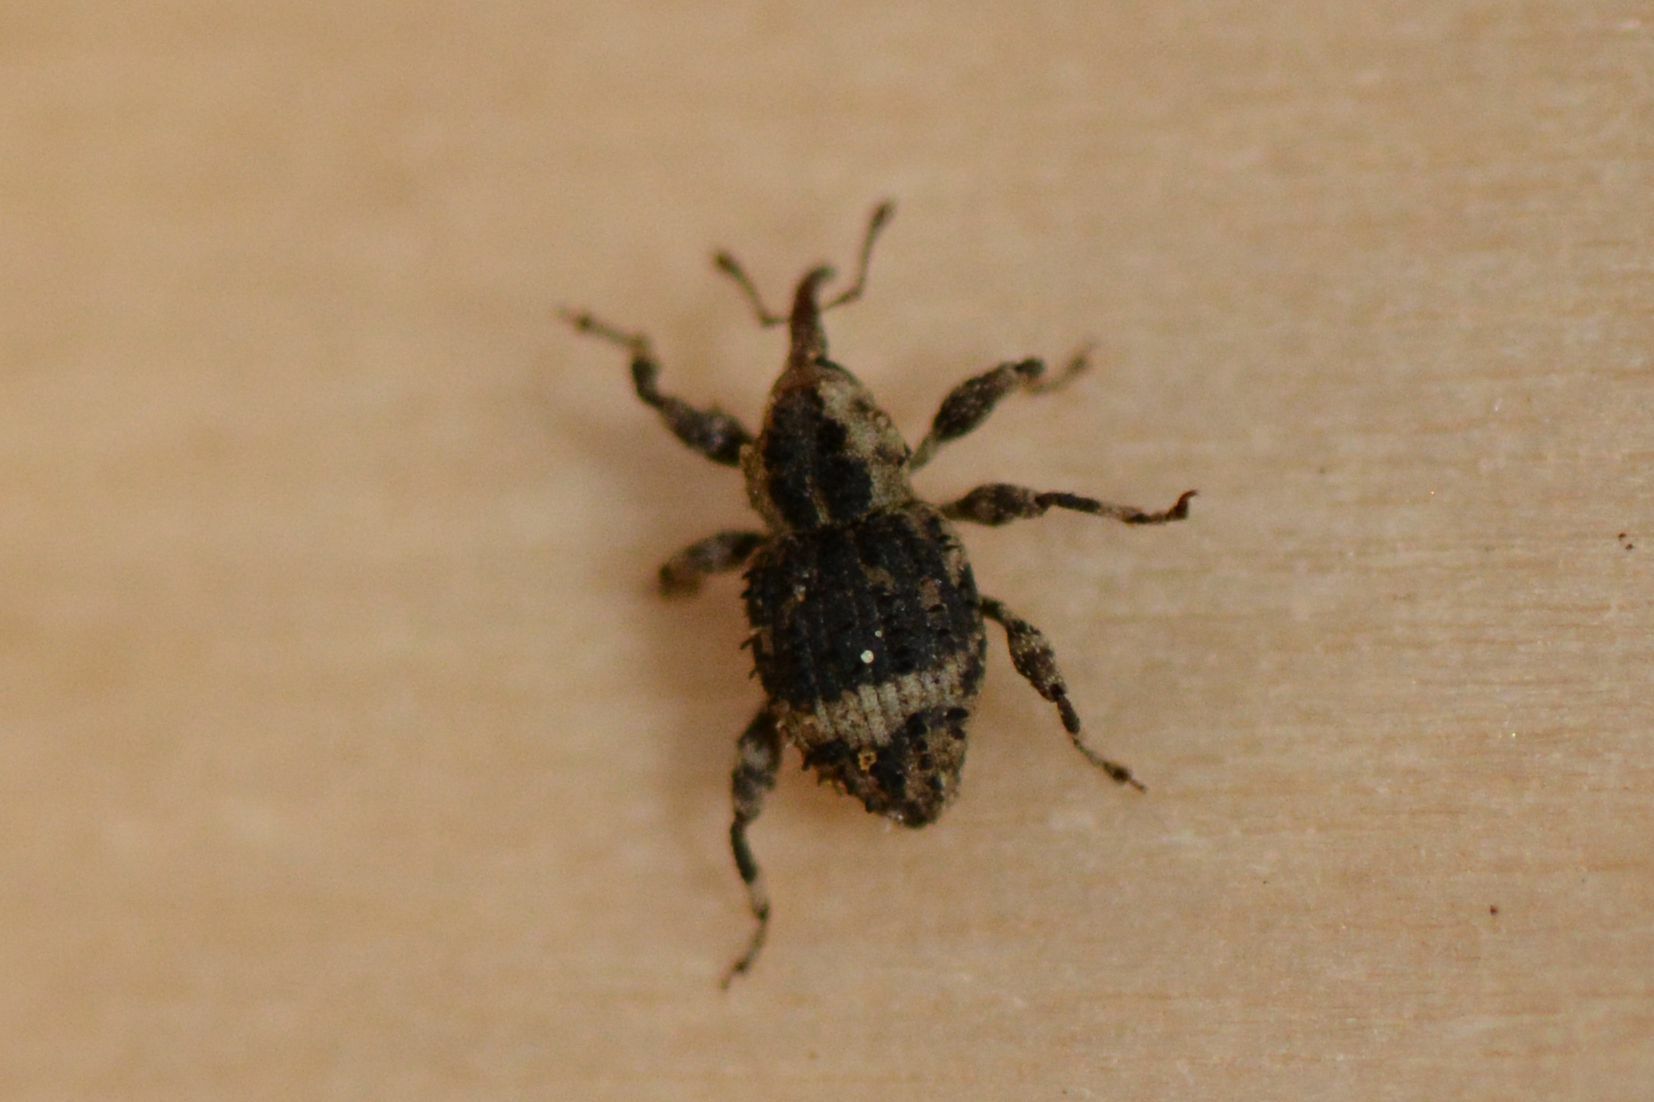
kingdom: Animalia
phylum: Arthropoda
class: Insecta
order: Coleoptera
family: Curculionidae
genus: Trachodes
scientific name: Trachodes hispidus
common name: Weevil
